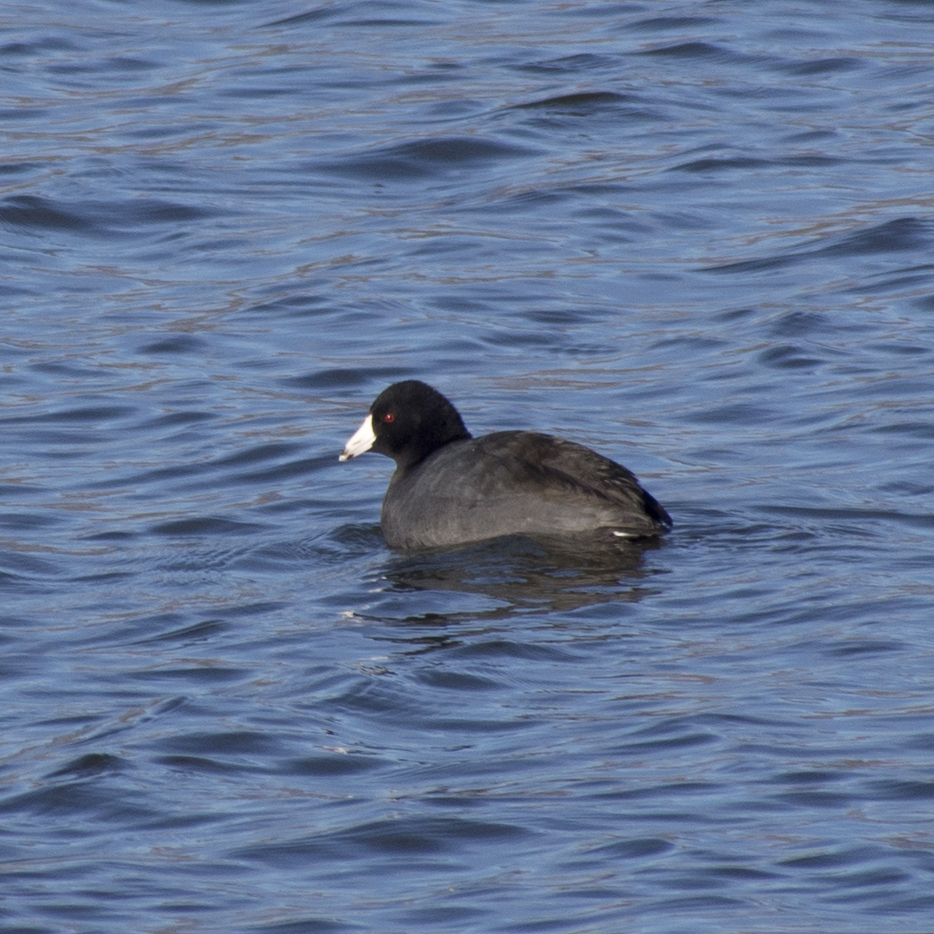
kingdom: Animalia
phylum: Chordata
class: Aves
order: Gruiformes
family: Rallidae
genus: Fulica
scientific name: Fulica americana
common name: American coot
